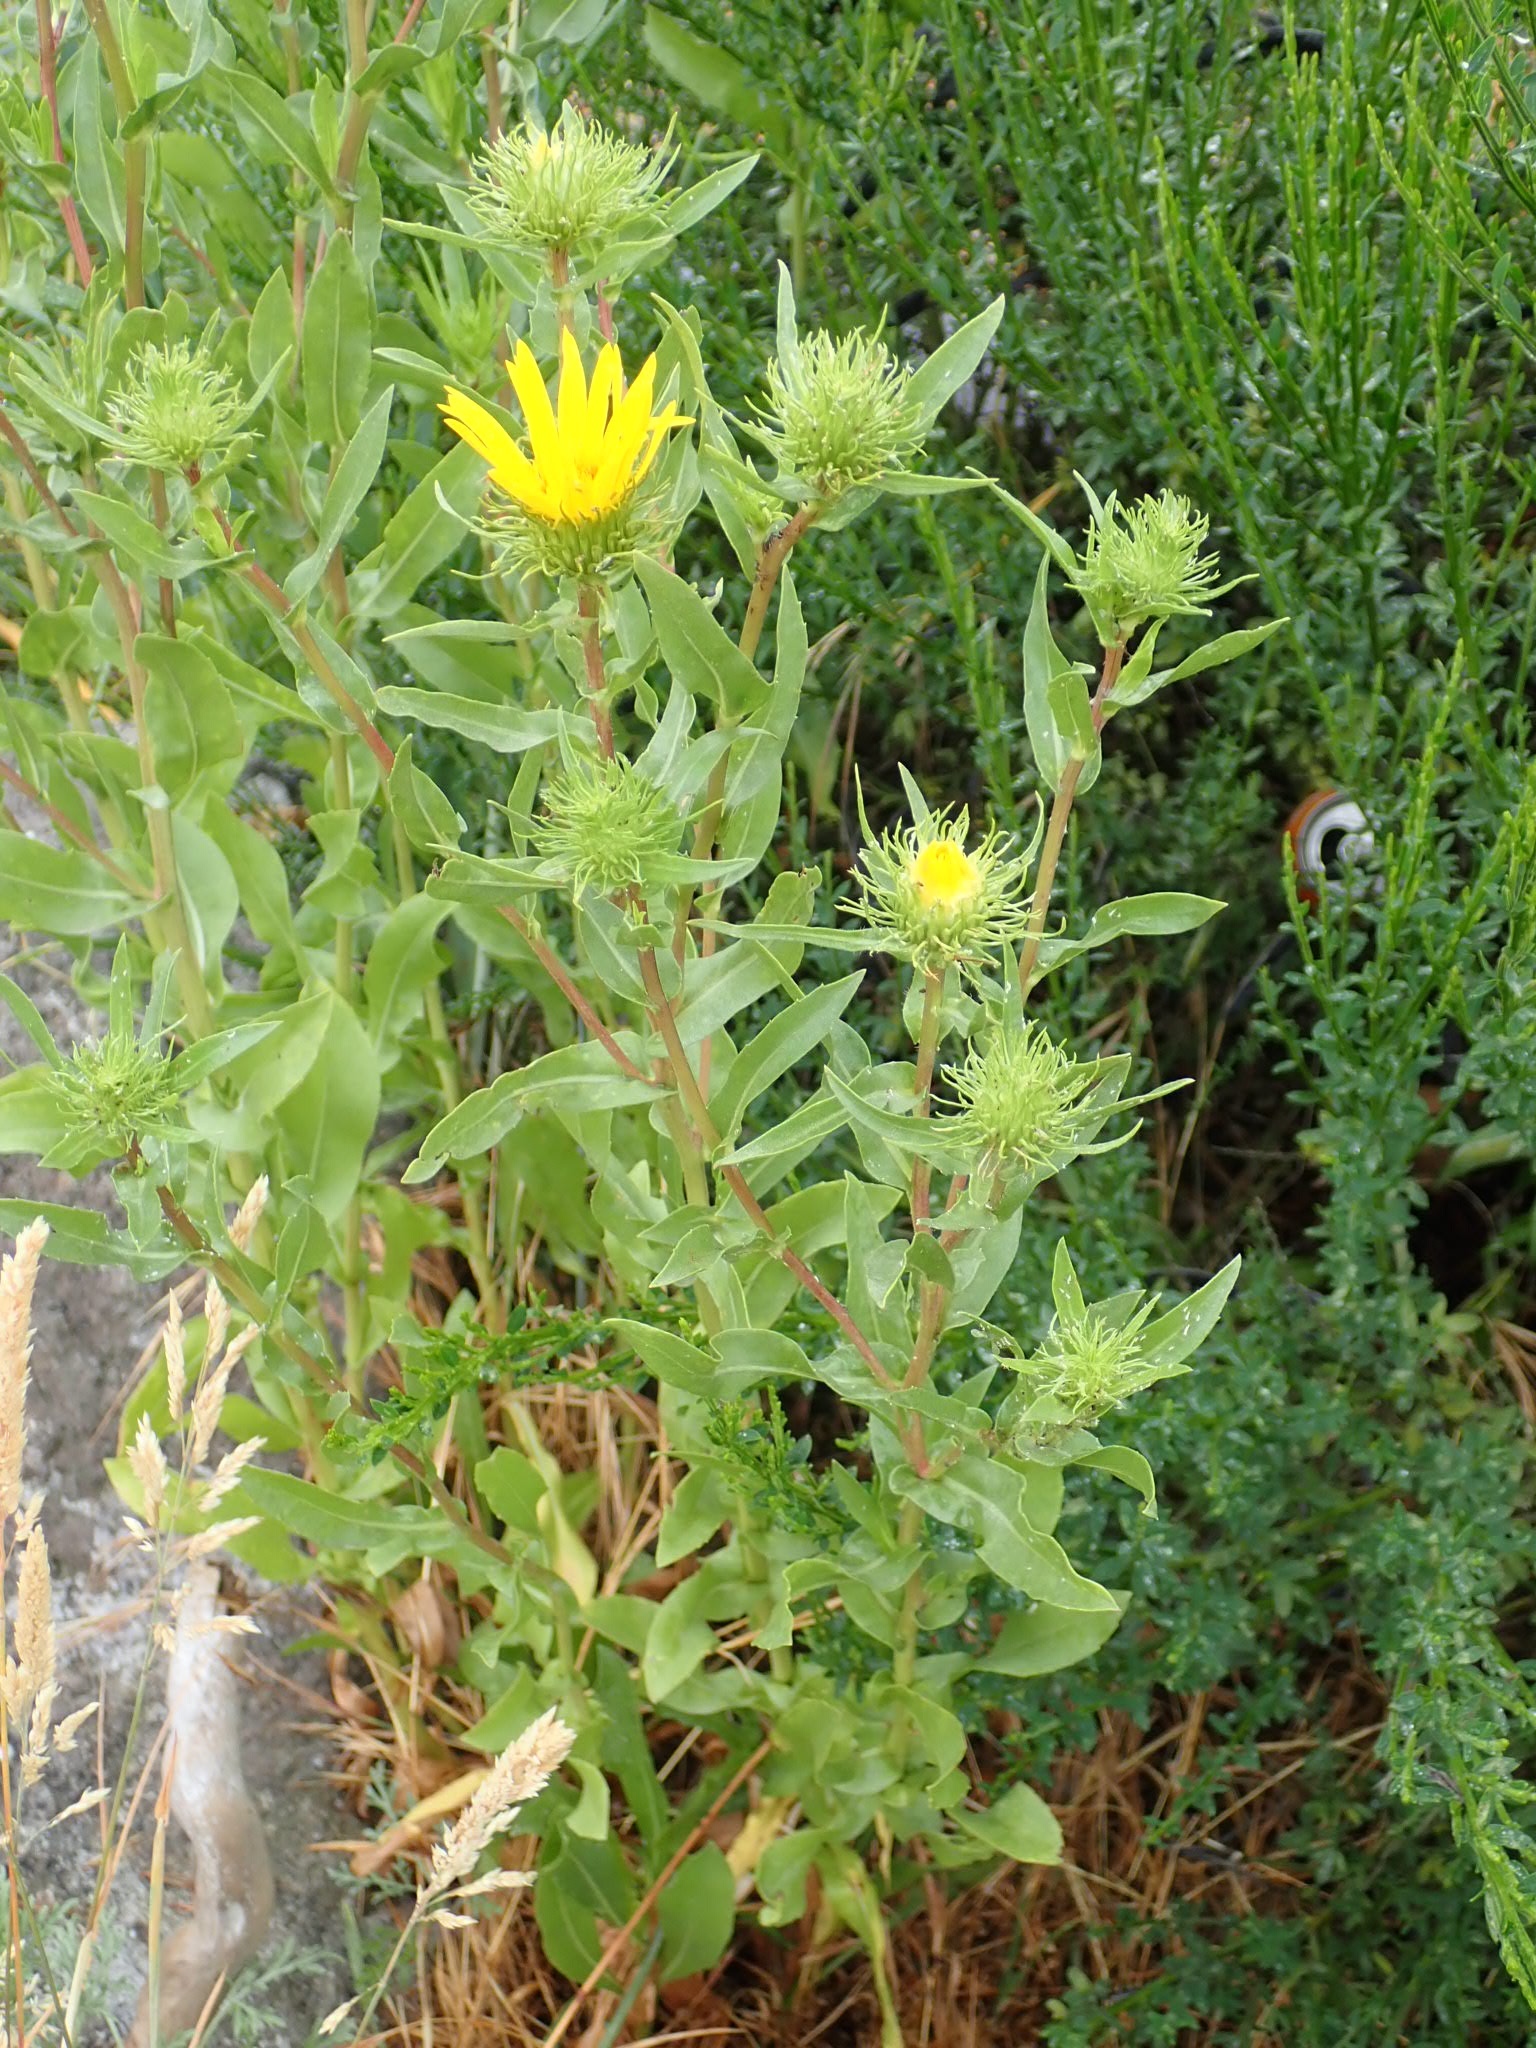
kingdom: Plantae
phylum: Tracheophyta
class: Magnoliopsida
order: Asterales
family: Asteraceae
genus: Grindelia
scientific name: Grindelia integrifolia
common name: Puget sound gumweed
